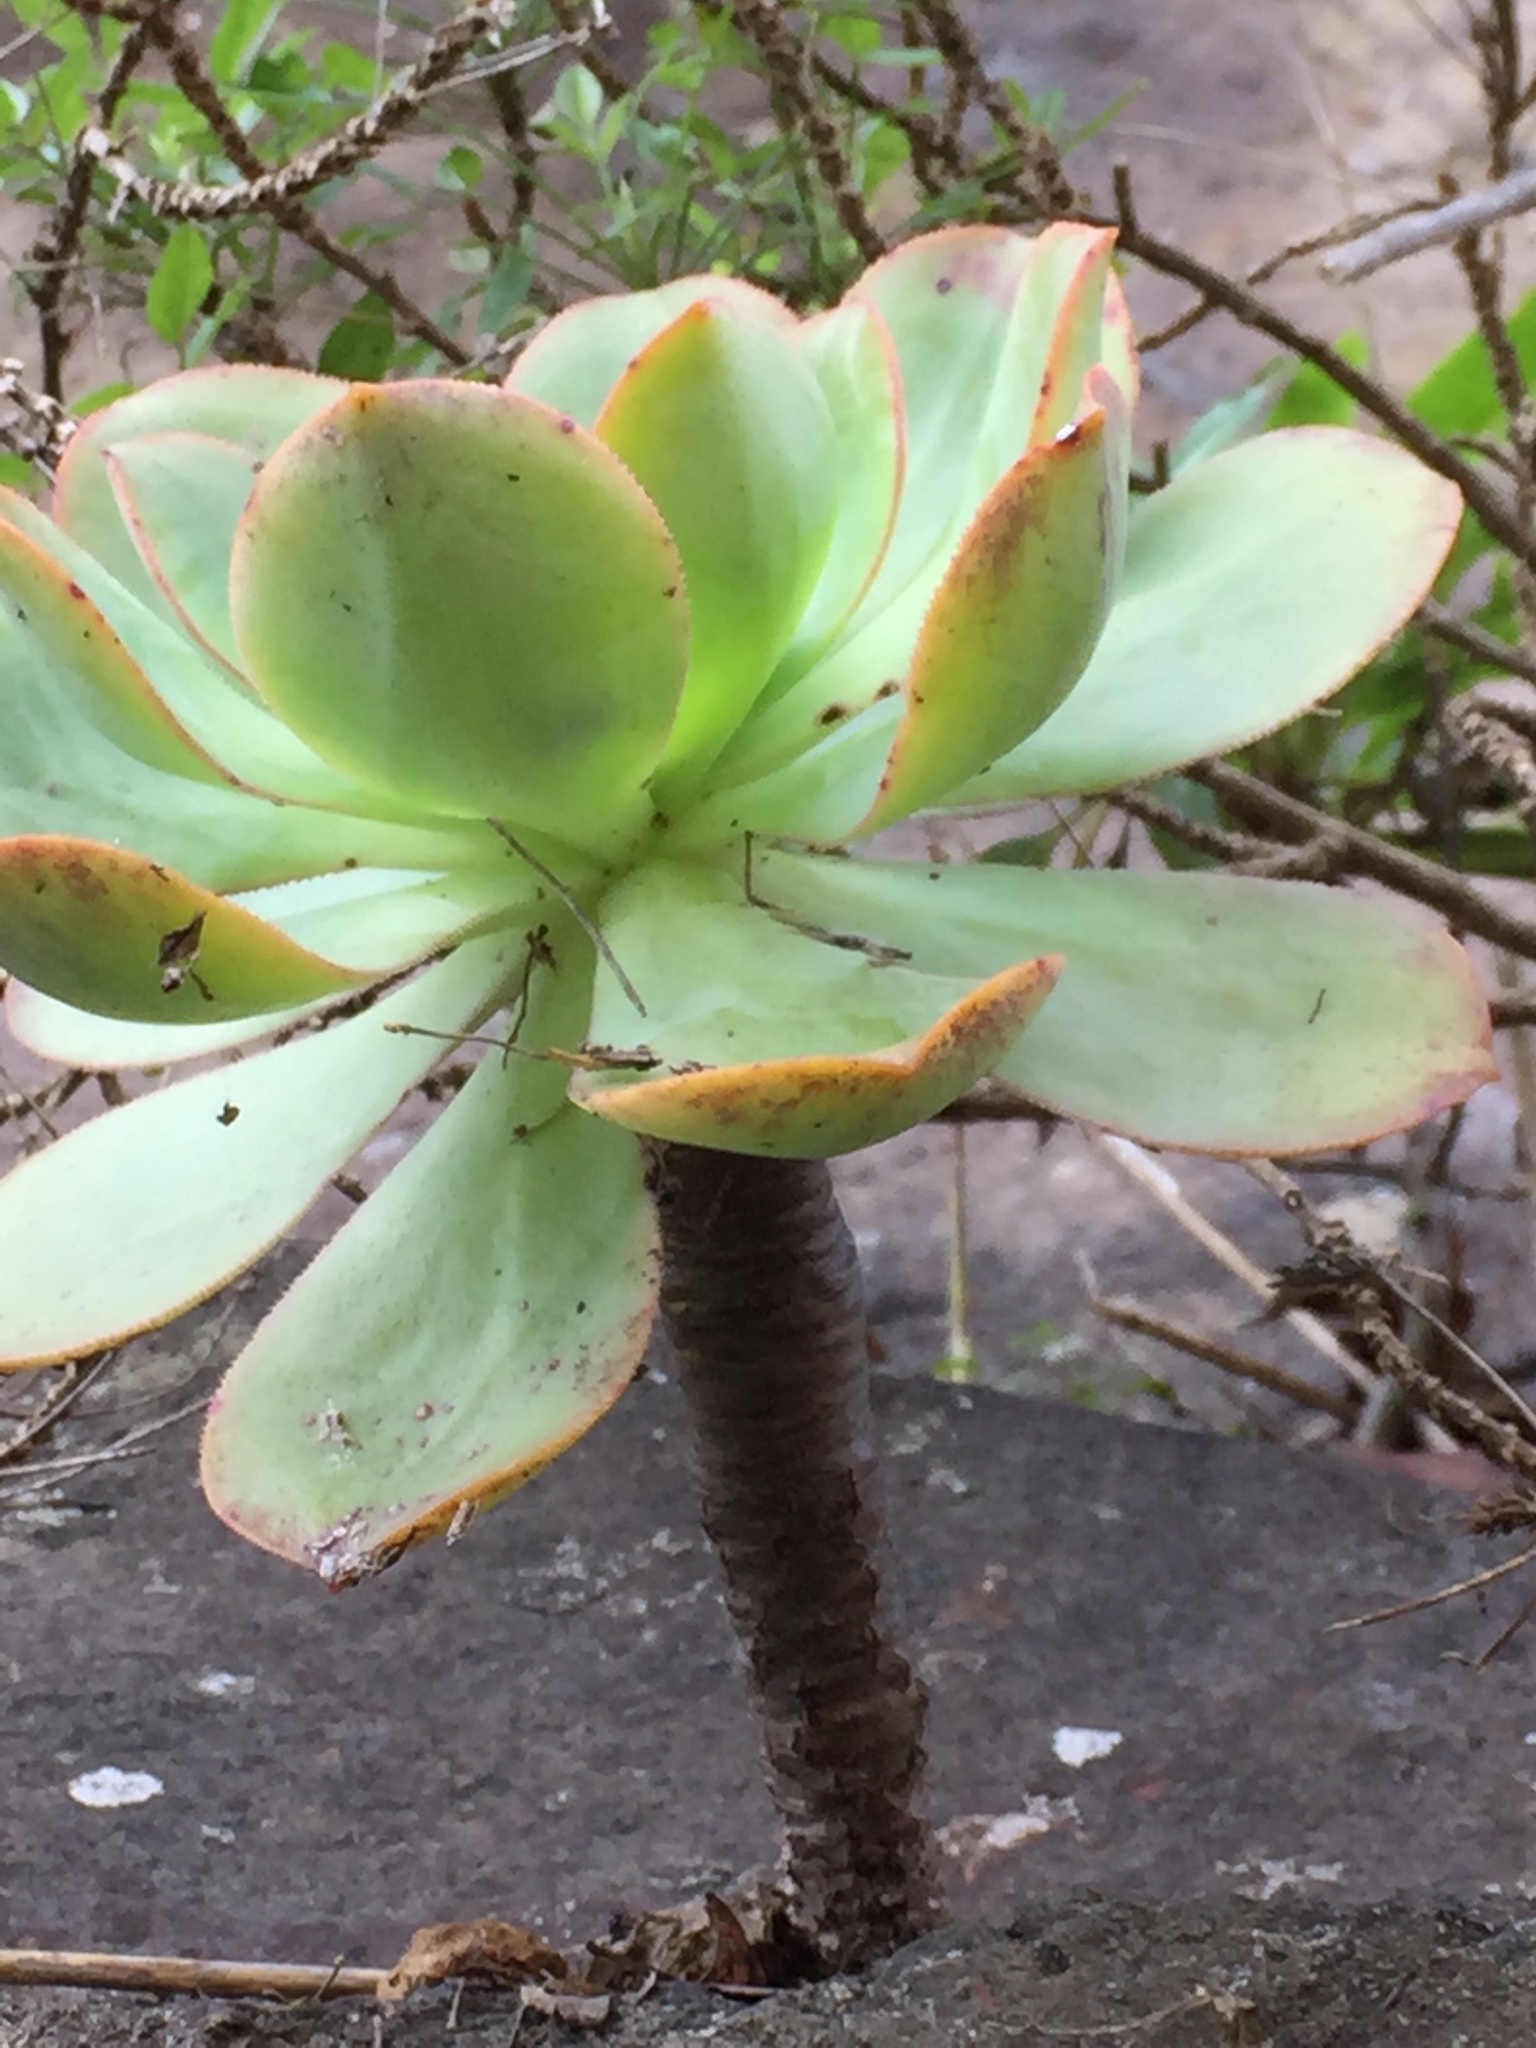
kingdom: Plantae
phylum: Tracheophyta
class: Magnoliopsida
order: Saxifragales
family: Crassulaceae
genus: Aeonium
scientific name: Aeonium hierrense
